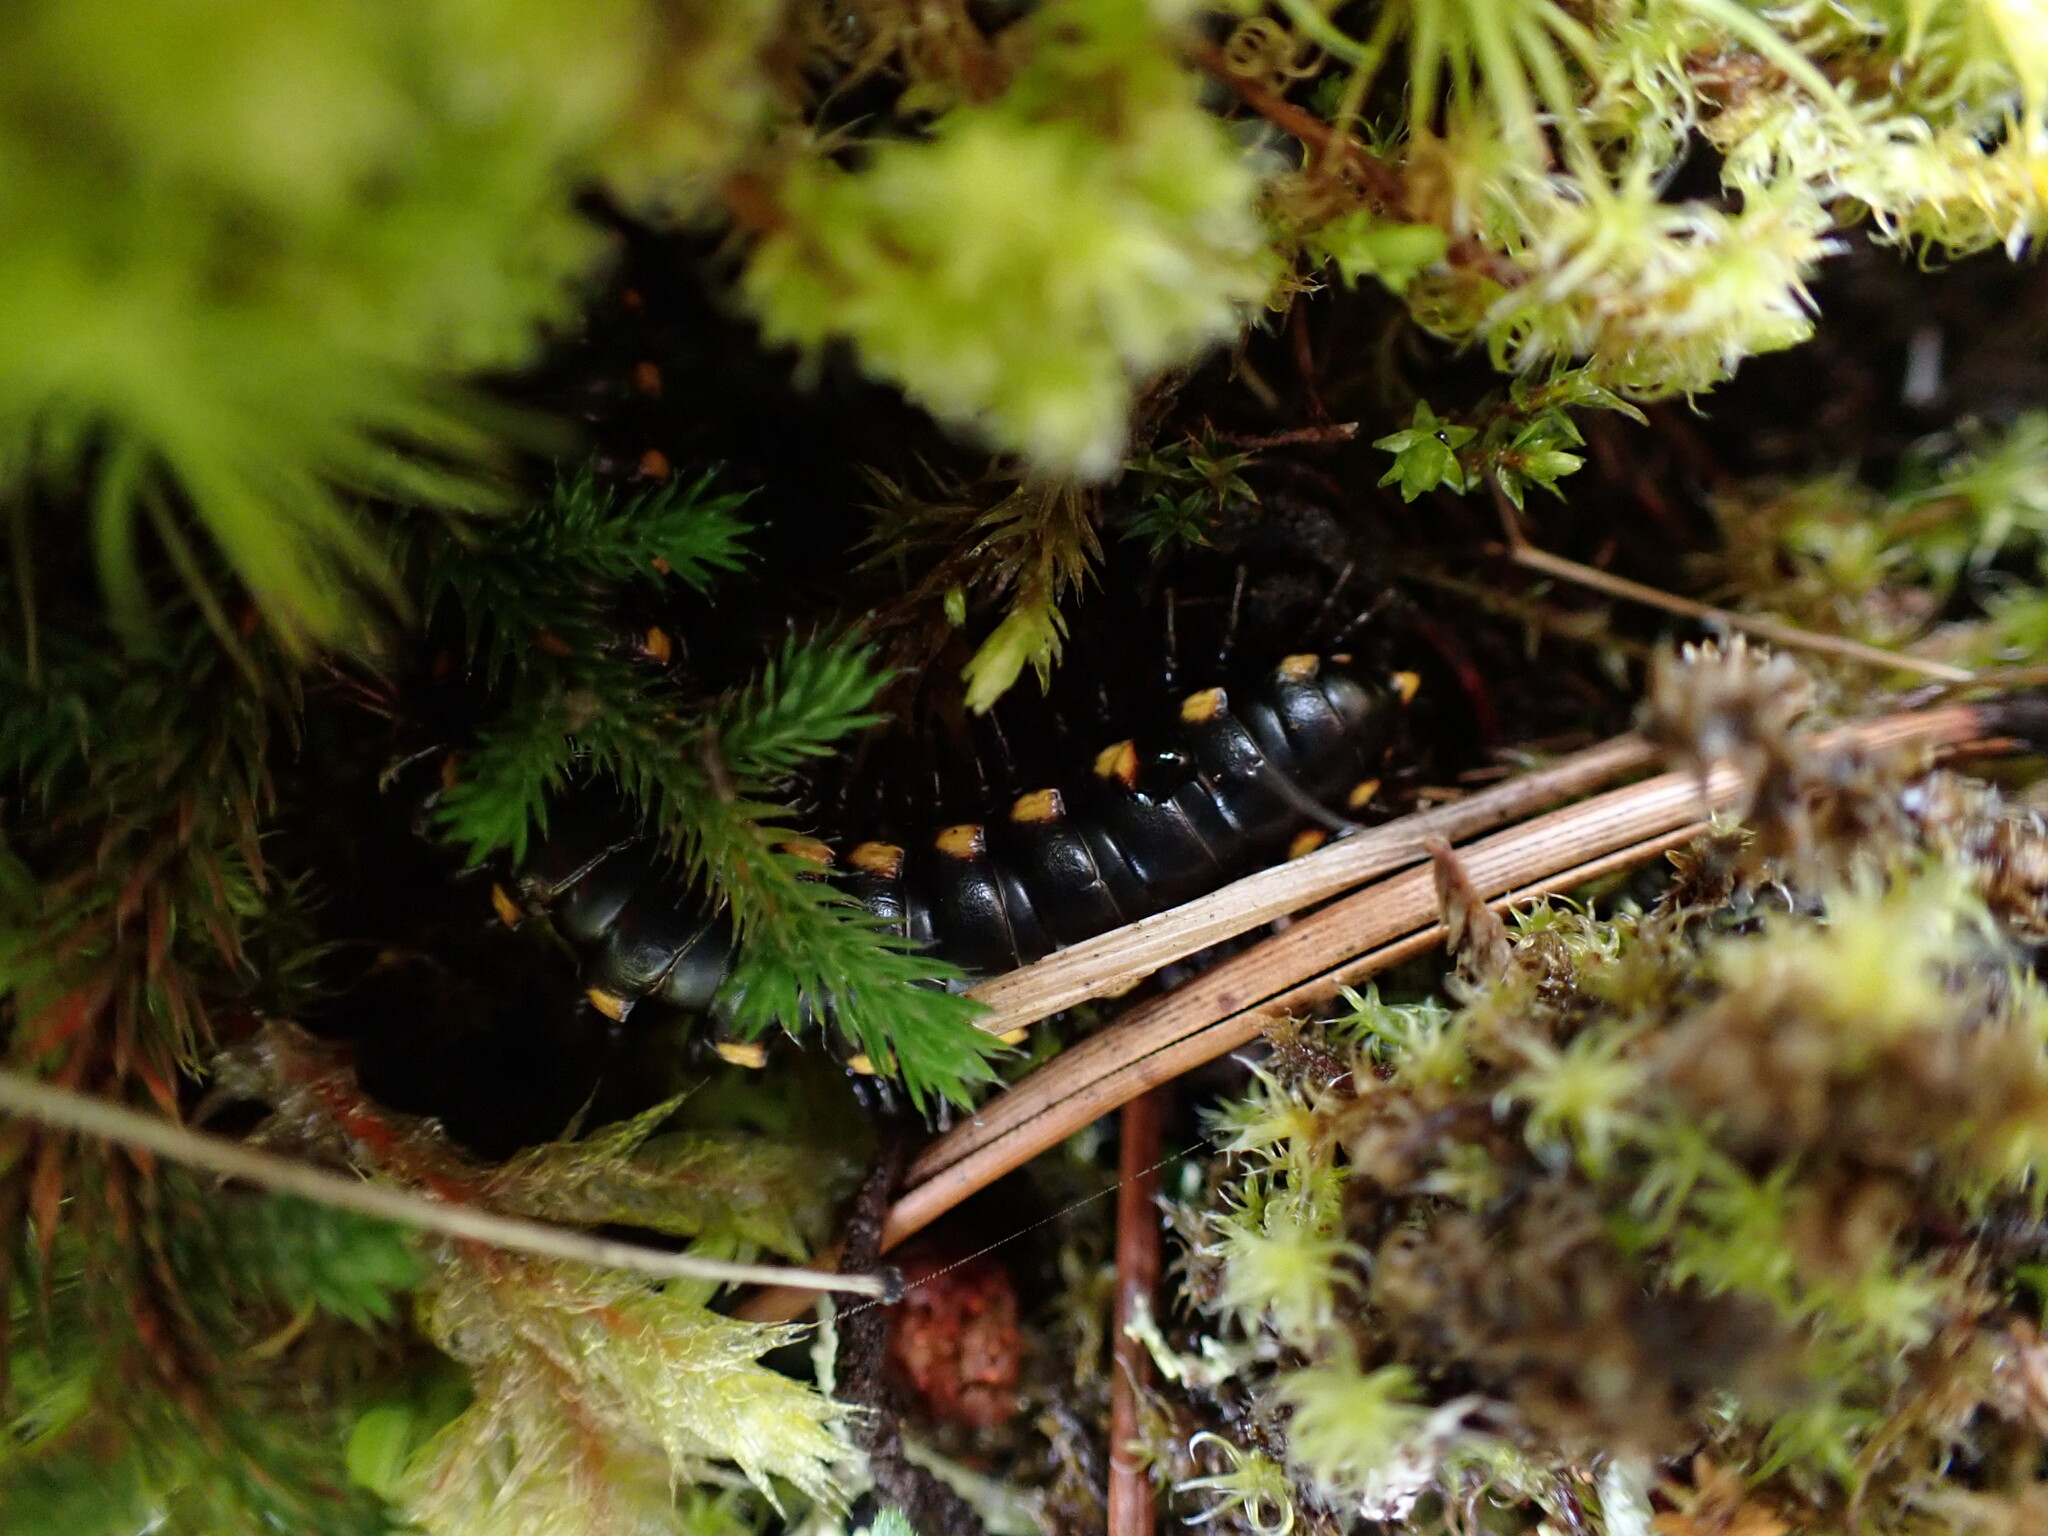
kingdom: Animalia
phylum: Arthropoda
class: Diplopoda
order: Polydesmida
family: Xystodesmidae
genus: Harpaphe
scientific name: Harpaphe haydeniana
